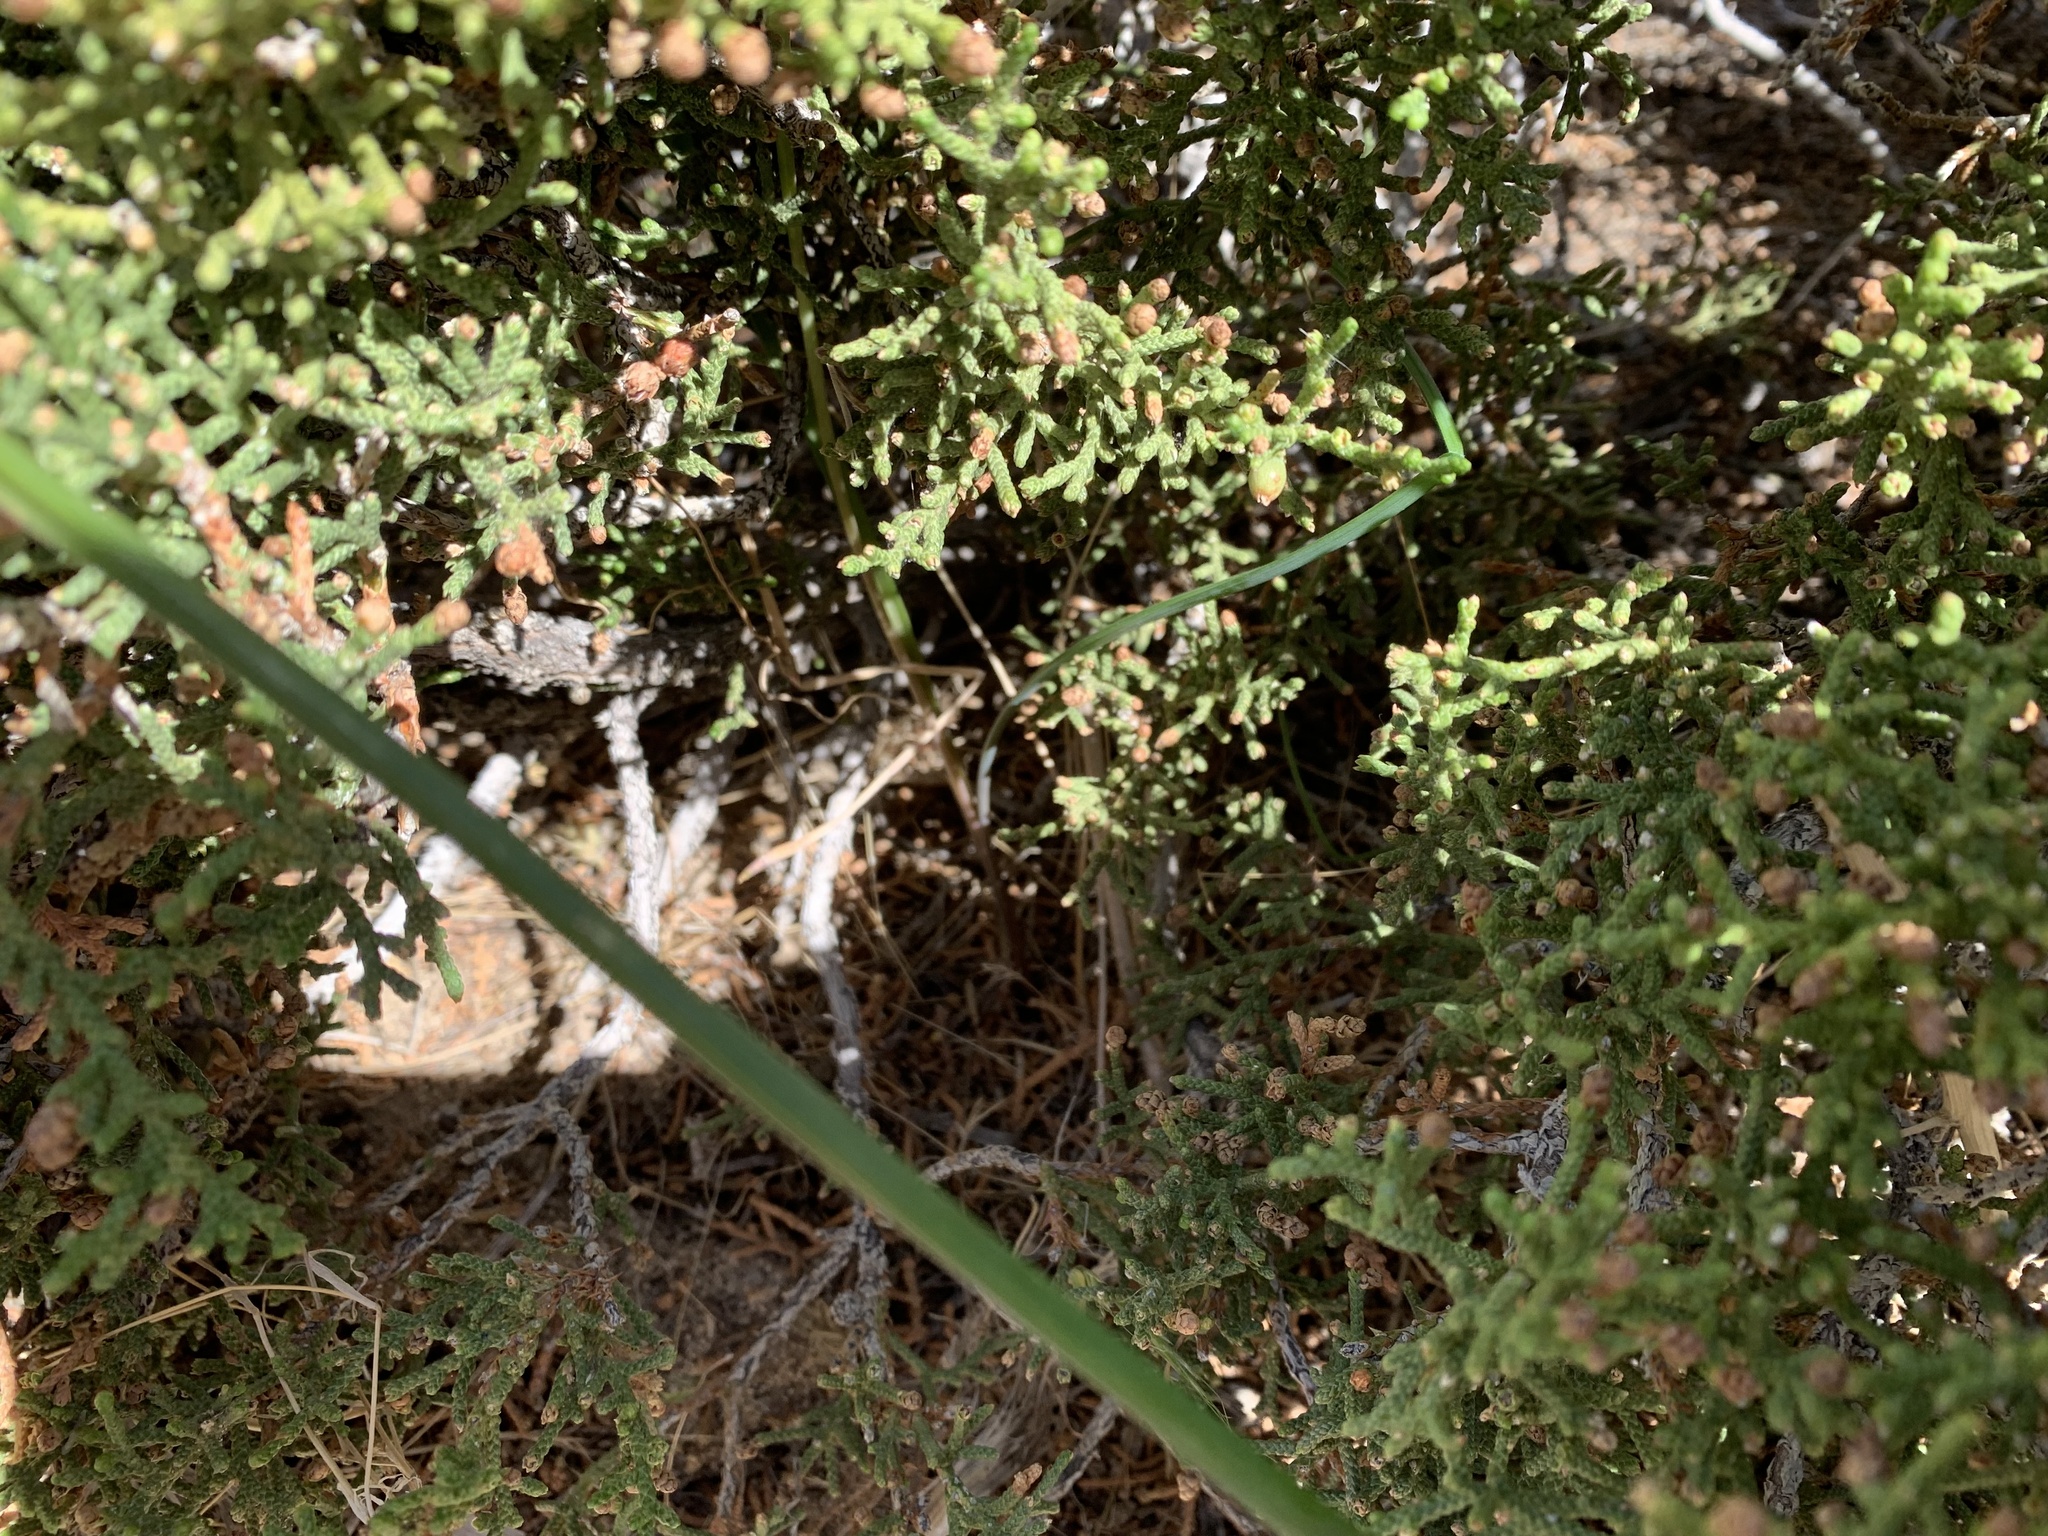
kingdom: Plantae
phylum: Tracheophyta
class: Liliopsida
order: Asparagales
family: Asparagaceae
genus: Dipterostemon
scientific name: Dipterostemon capitatus
